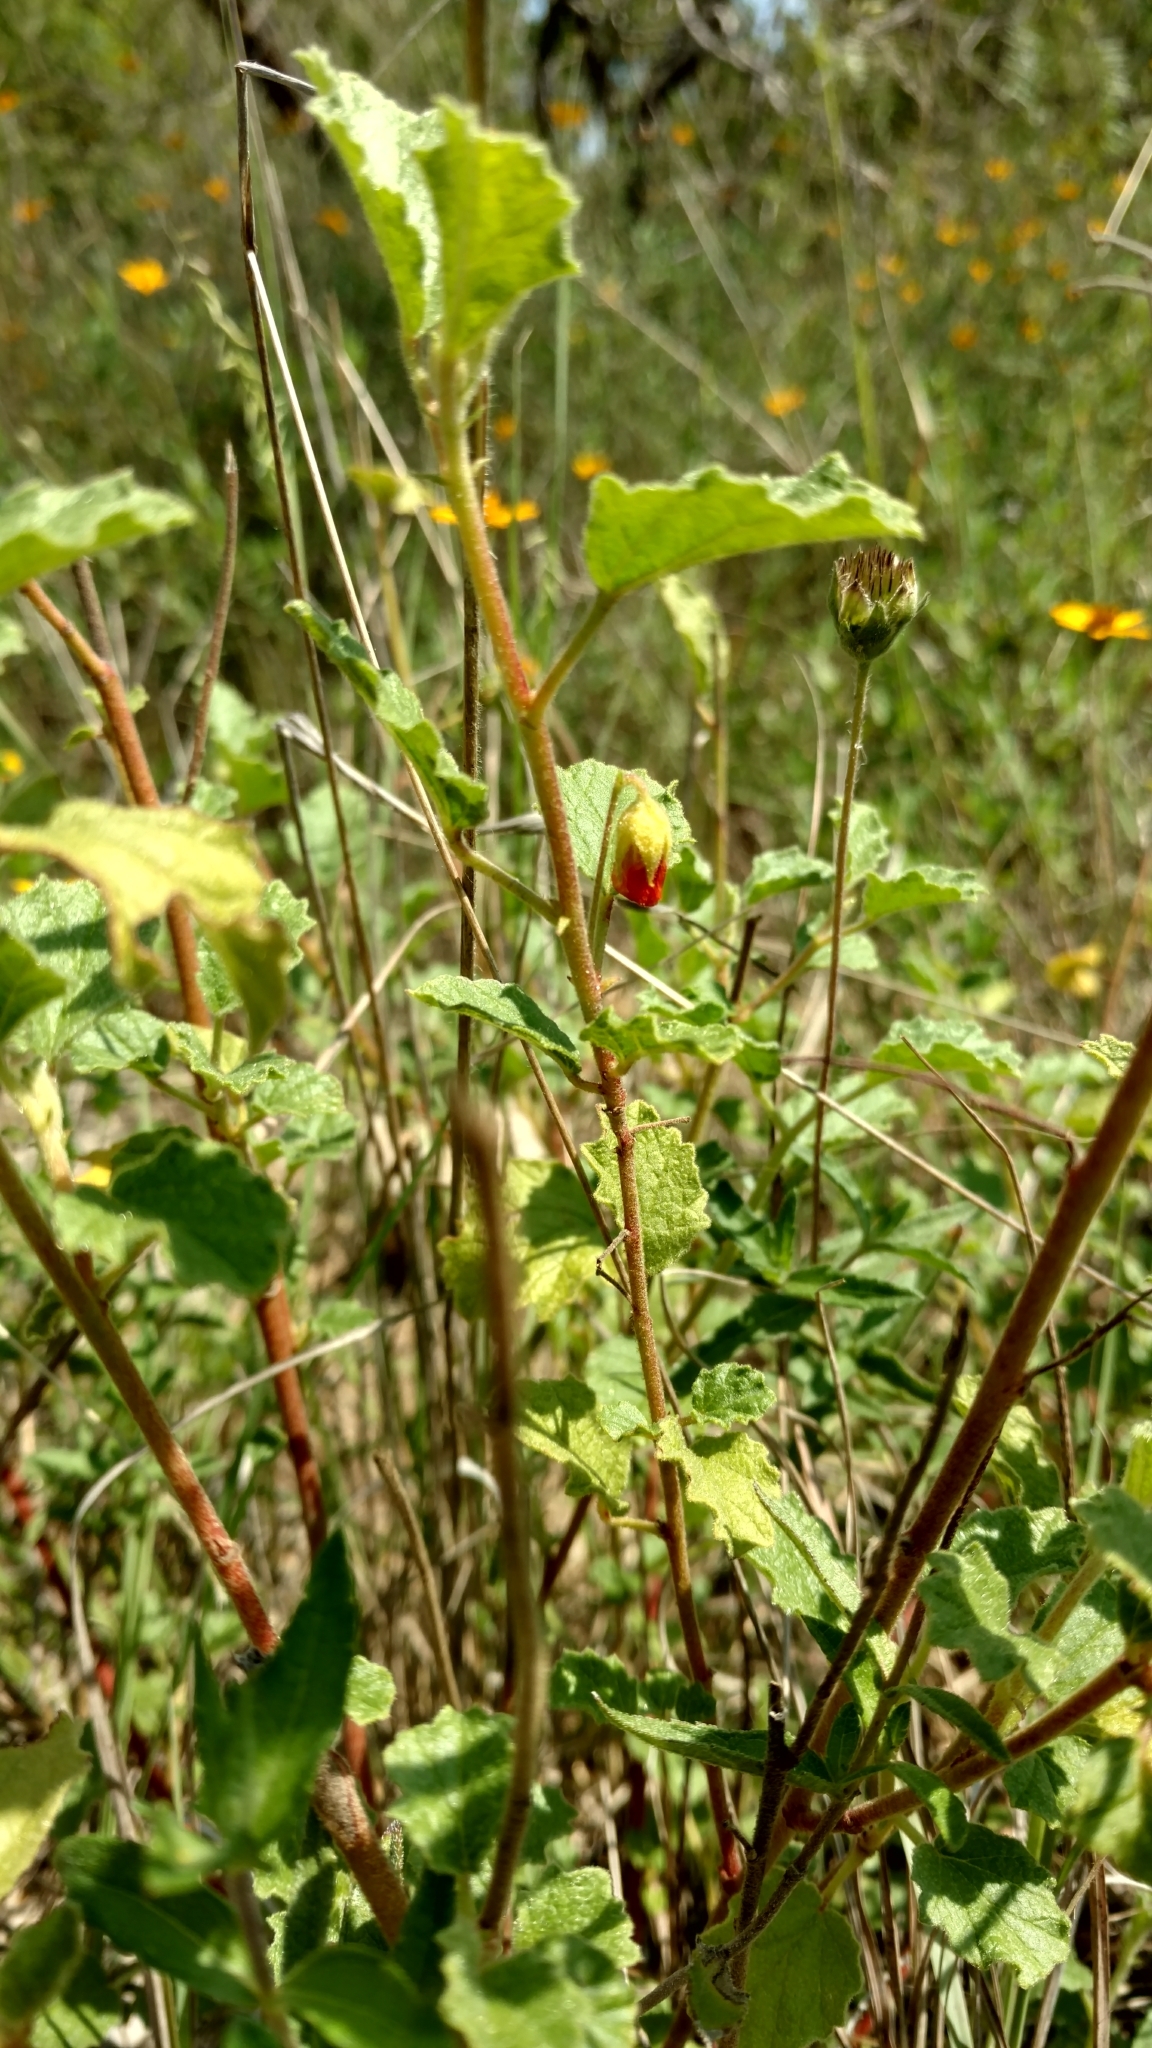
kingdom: Plantae
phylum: Tracheophyta
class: Magnoliopsida
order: Malvales
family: Malvaceae
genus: Hermannia
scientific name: Hermannia texana
